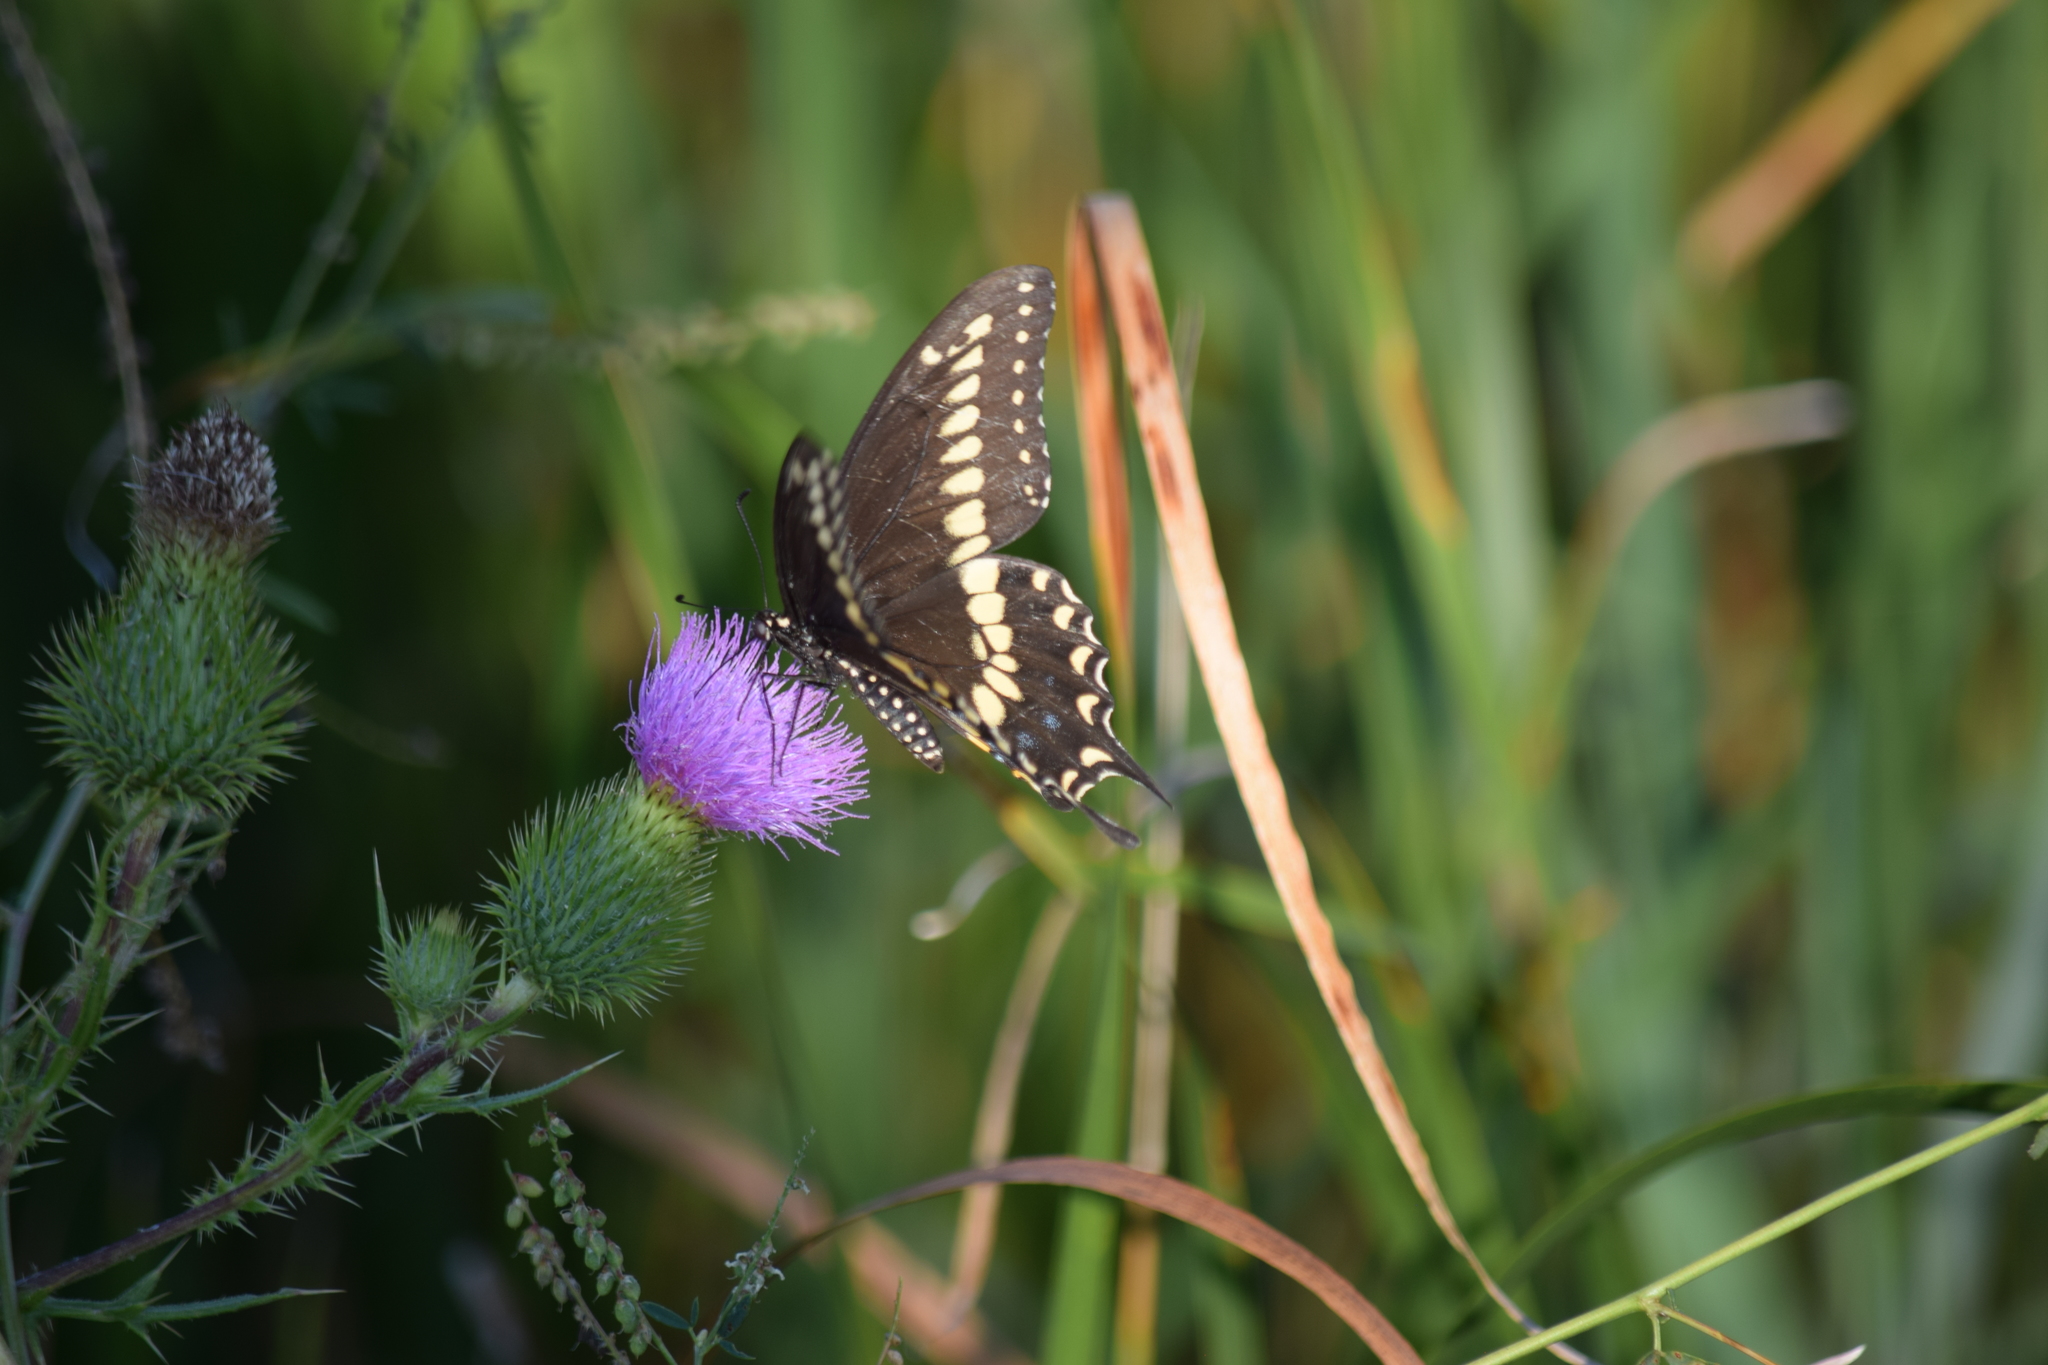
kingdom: Animalia
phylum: Arthropoda
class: Insecta
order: Lepidoptera
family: Papilionidae
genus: Papilio
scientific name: Papilio polyxenes
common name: Black swallowtail
